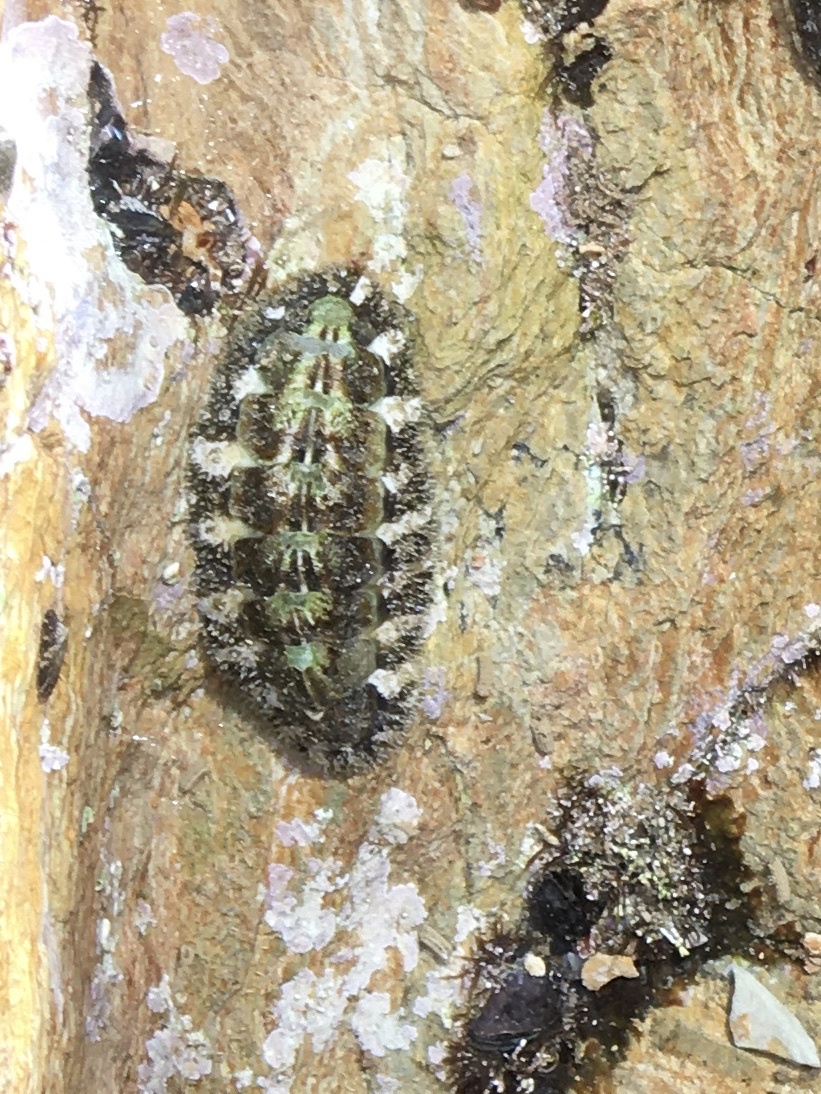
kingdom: Animalia
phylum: Mollusca
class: Polyplacophora
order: Chitonida
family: Tonicellidae
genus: Nuttallina
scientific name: Nuttallina californica
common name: California nuttall chiton
